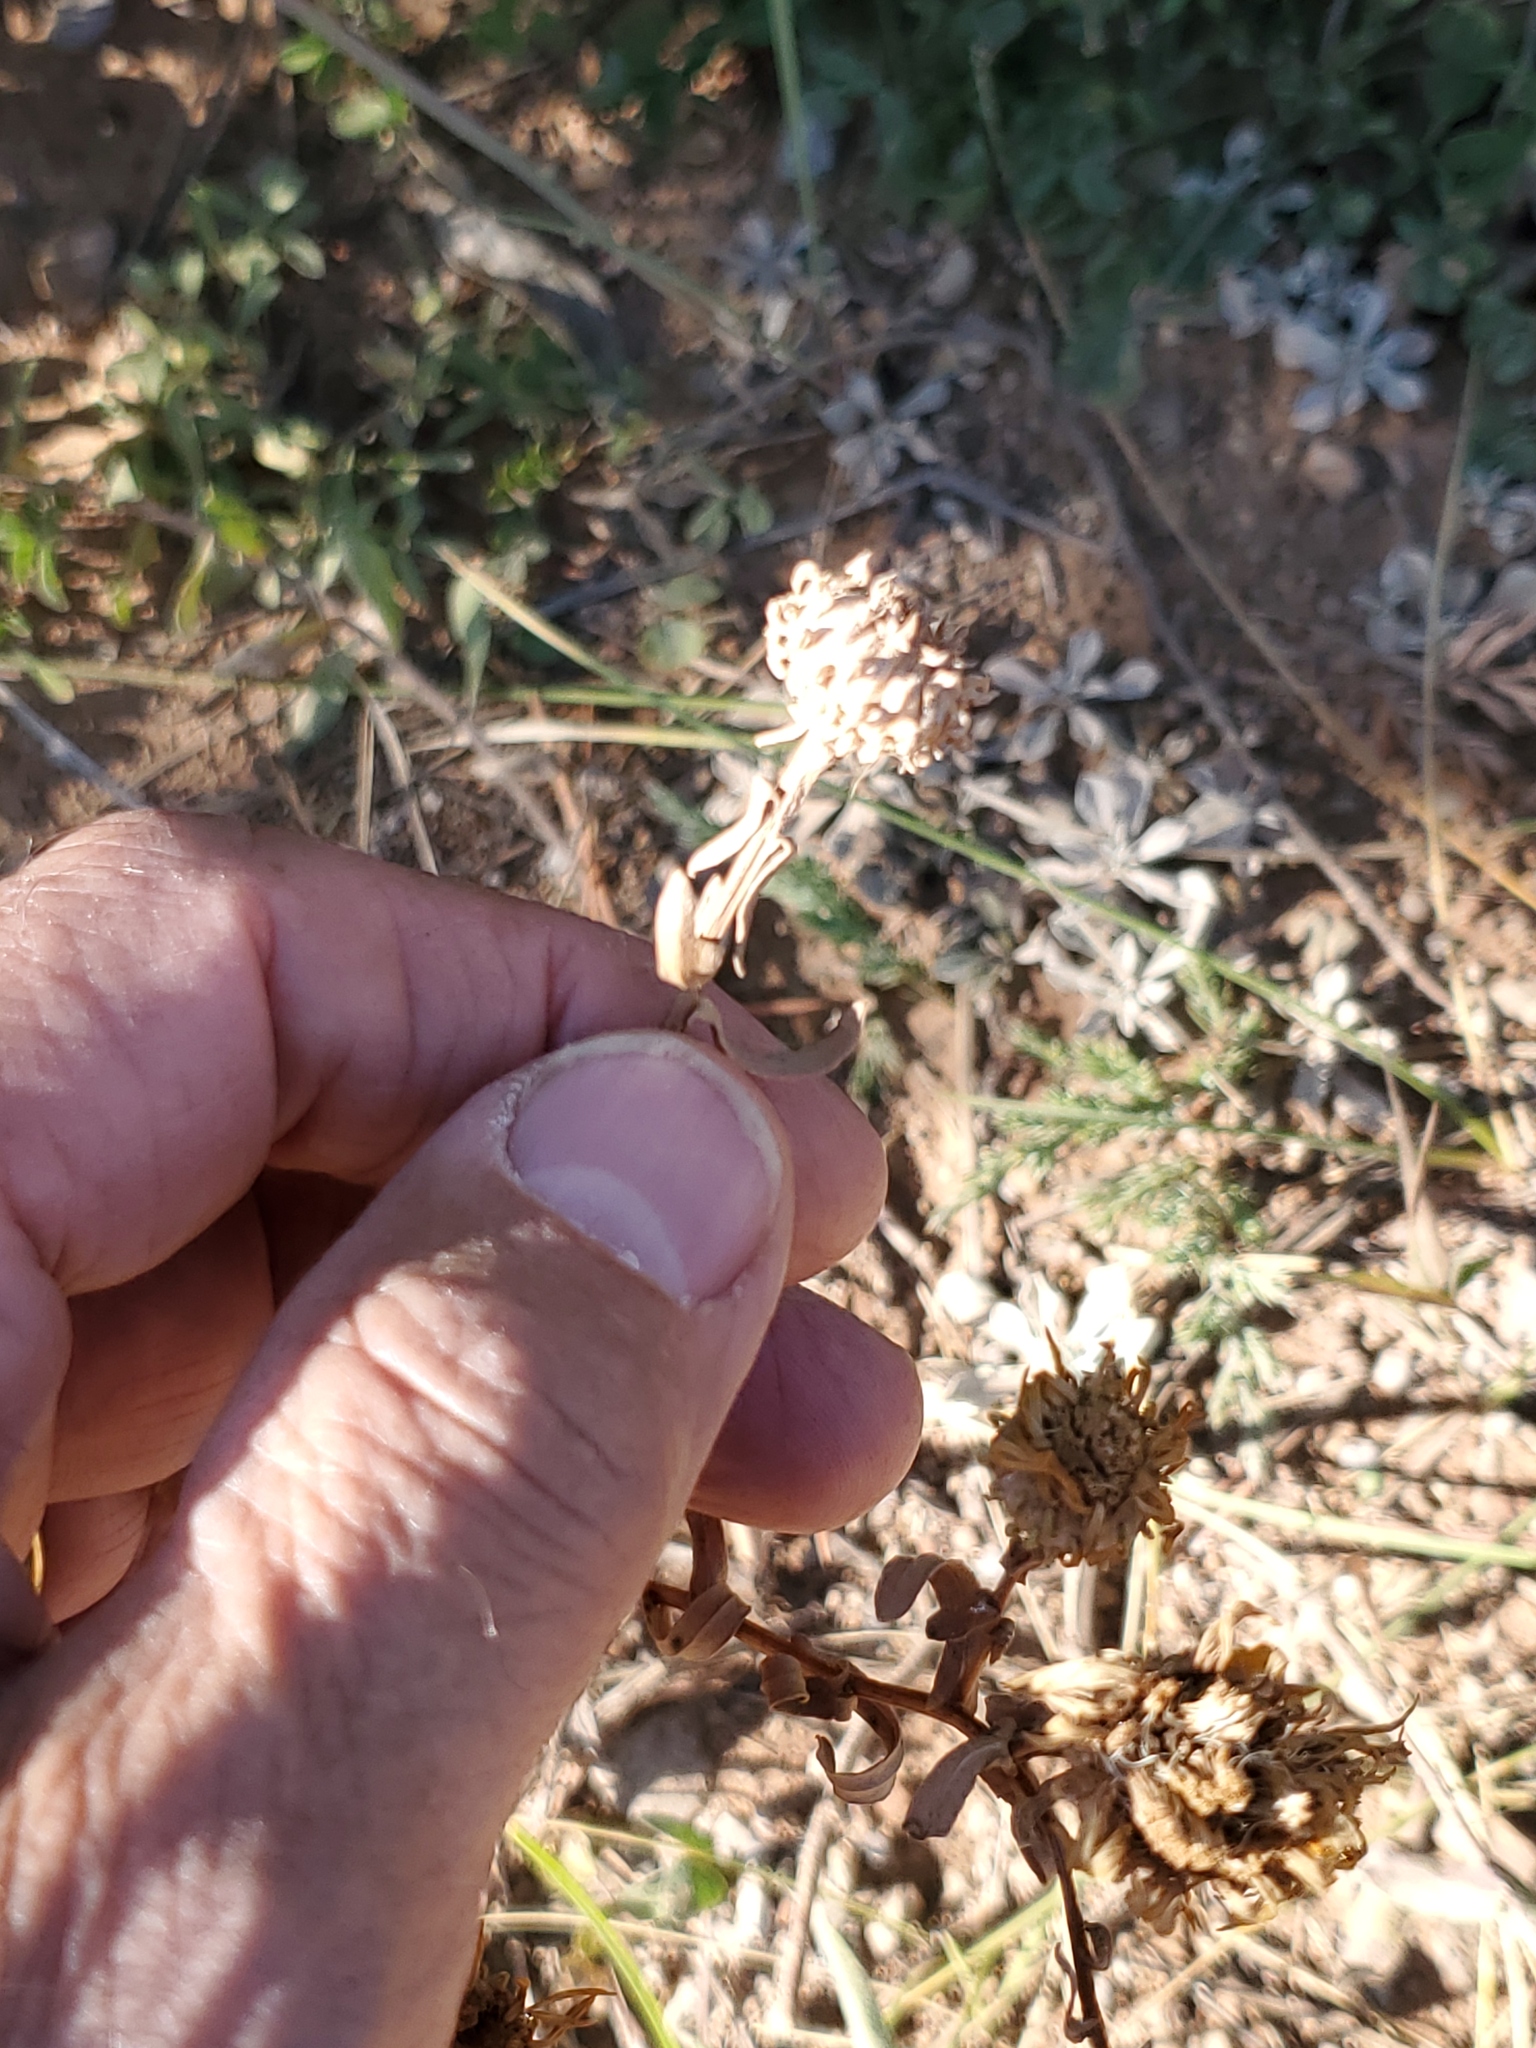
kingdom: Plantae
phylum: Tracheophyta
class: Magnoliopsida
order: Asterales
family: Asteraceae
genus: Grindelia
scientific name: Grindelia squarrosa
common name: Curly-cup gumweed
